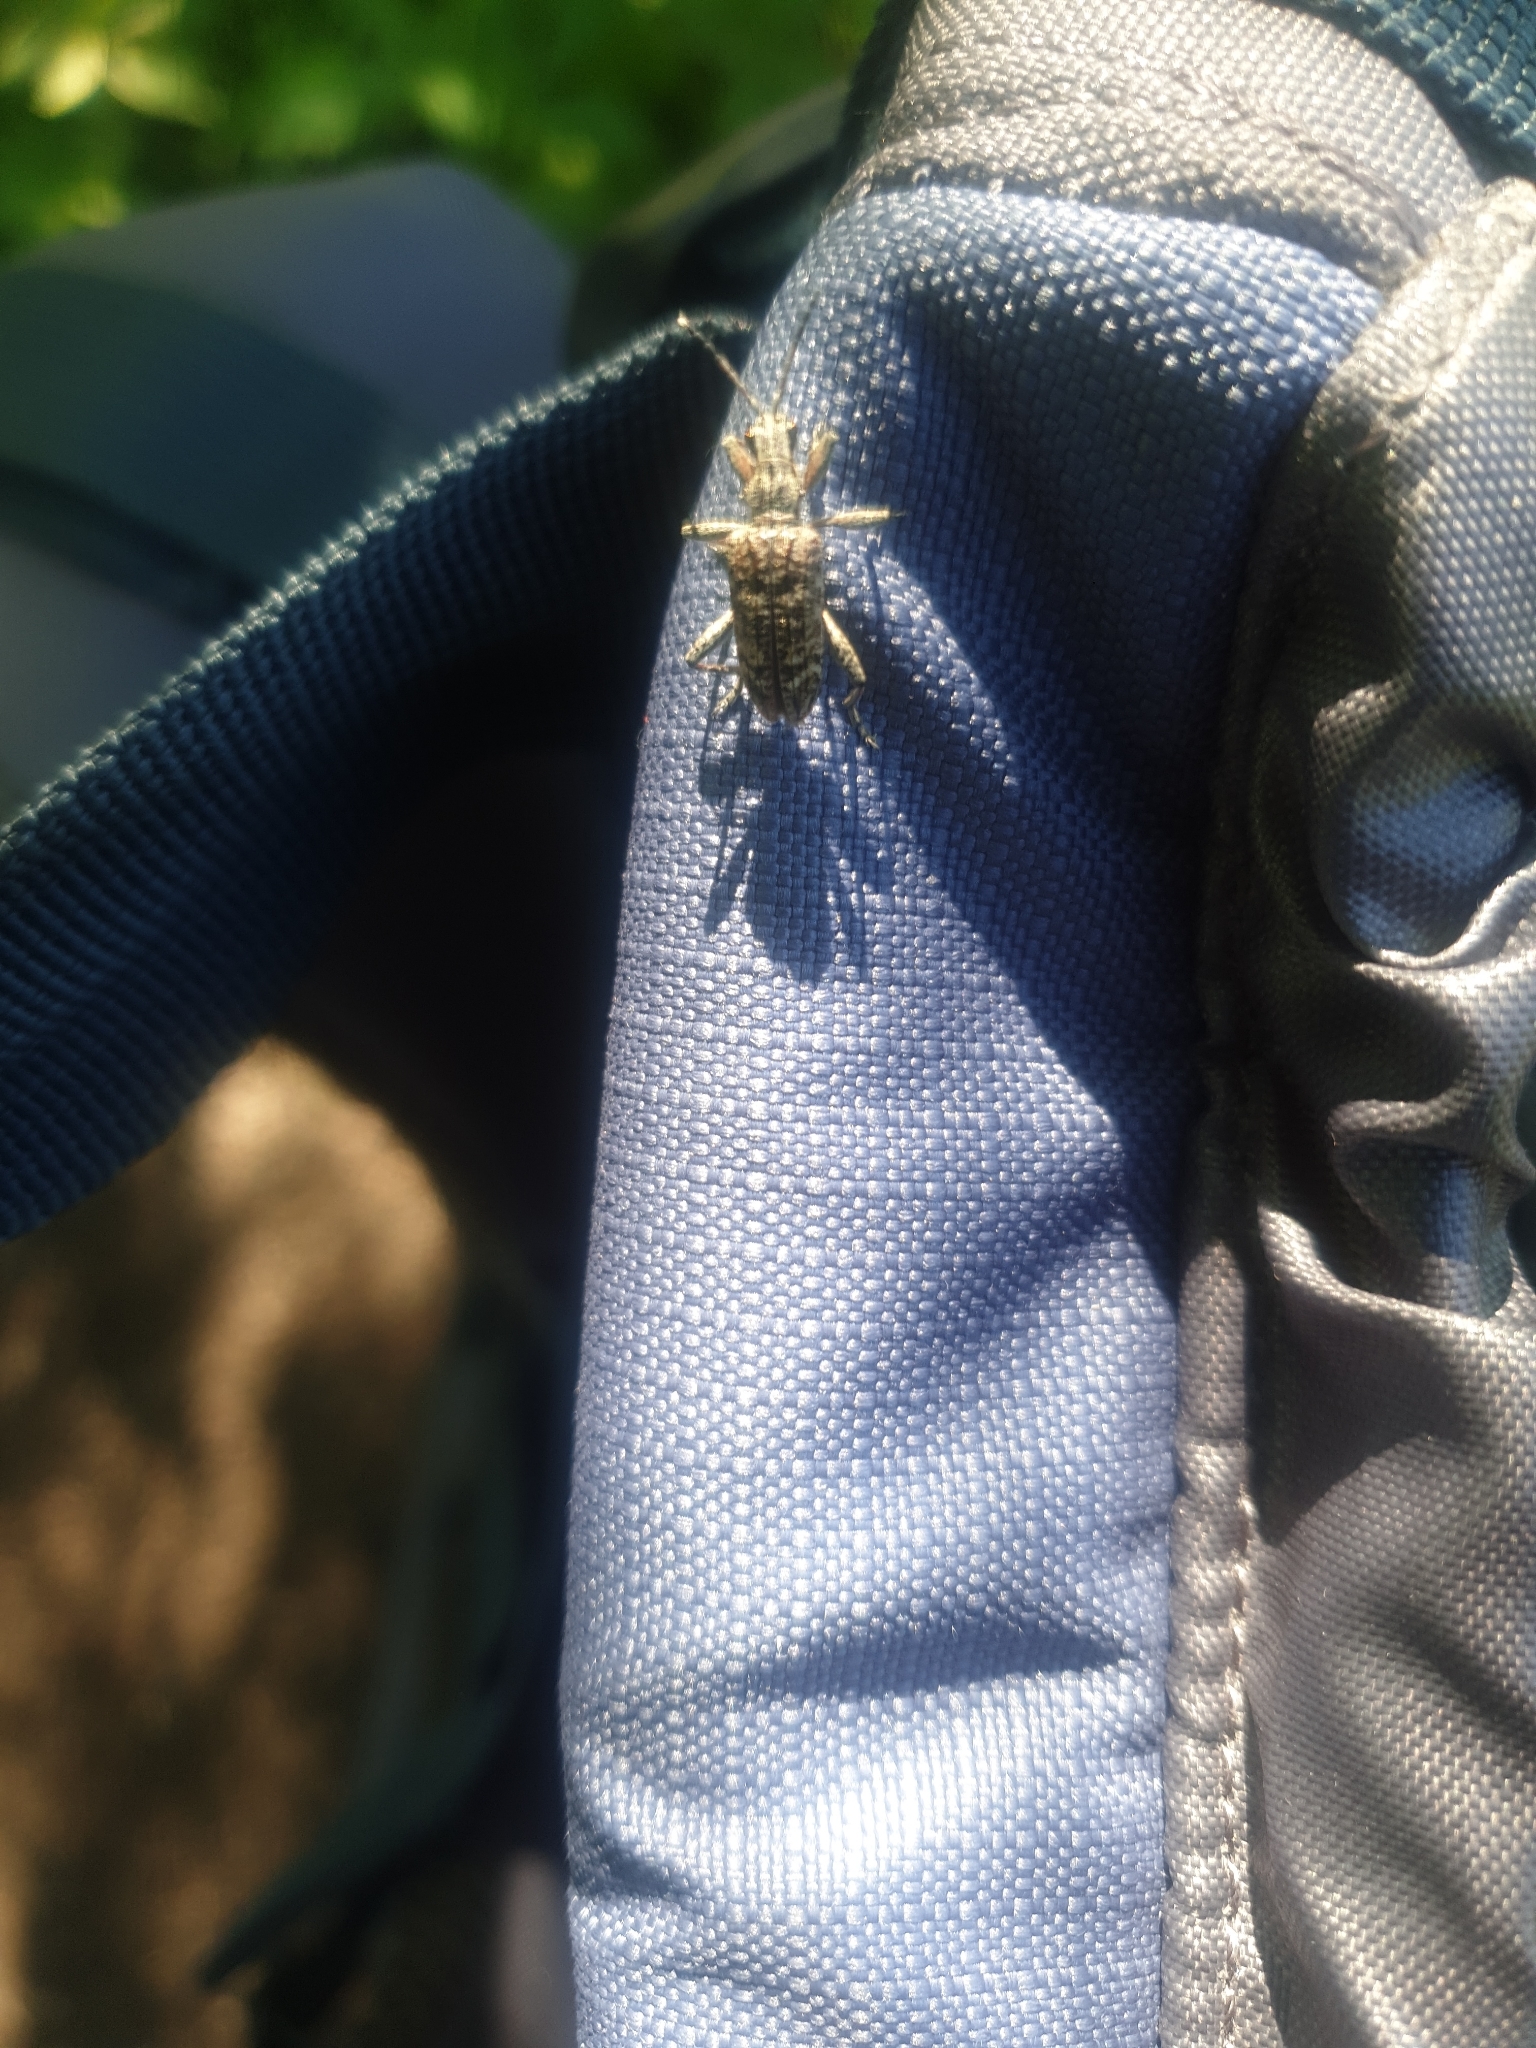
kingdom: Animalia
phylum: Arthropoda
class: Insecta
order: Coleoptera
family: Cerambycidae
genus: Rhagium
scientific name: Rhagium inquisitor
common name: Ribbed pine borer
